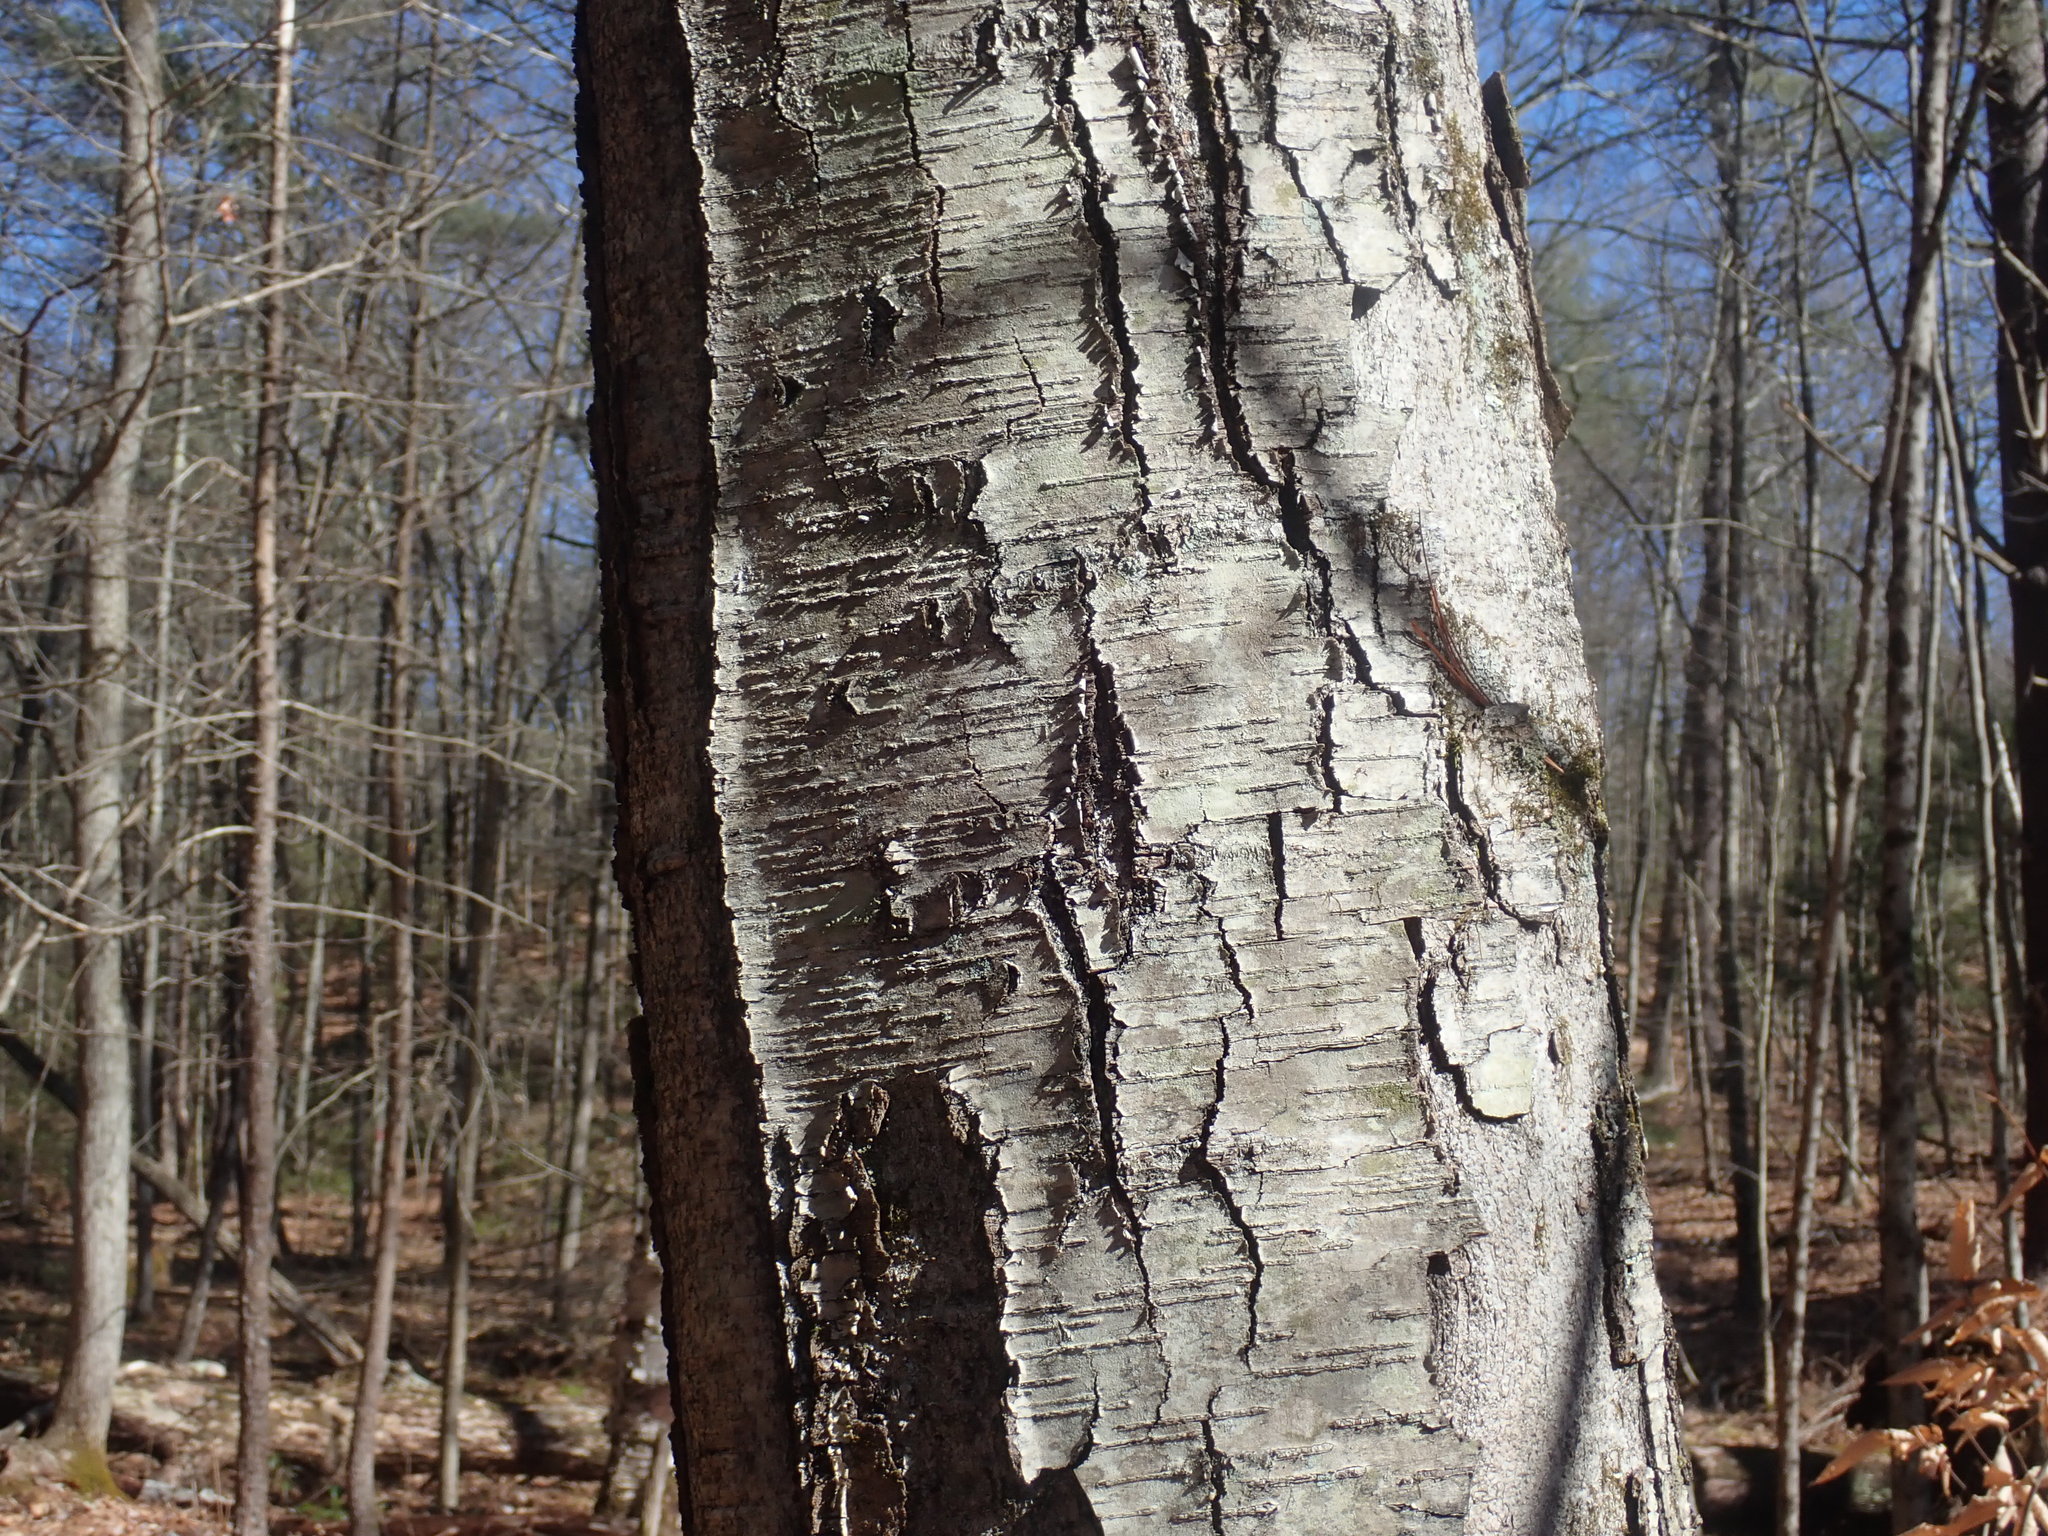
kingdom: Plantae
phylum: Tracheophyta
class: Magnoliopsida
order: Fagales
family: Betulaceae
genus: Betula
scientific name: Betula lenta
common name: Black birch
